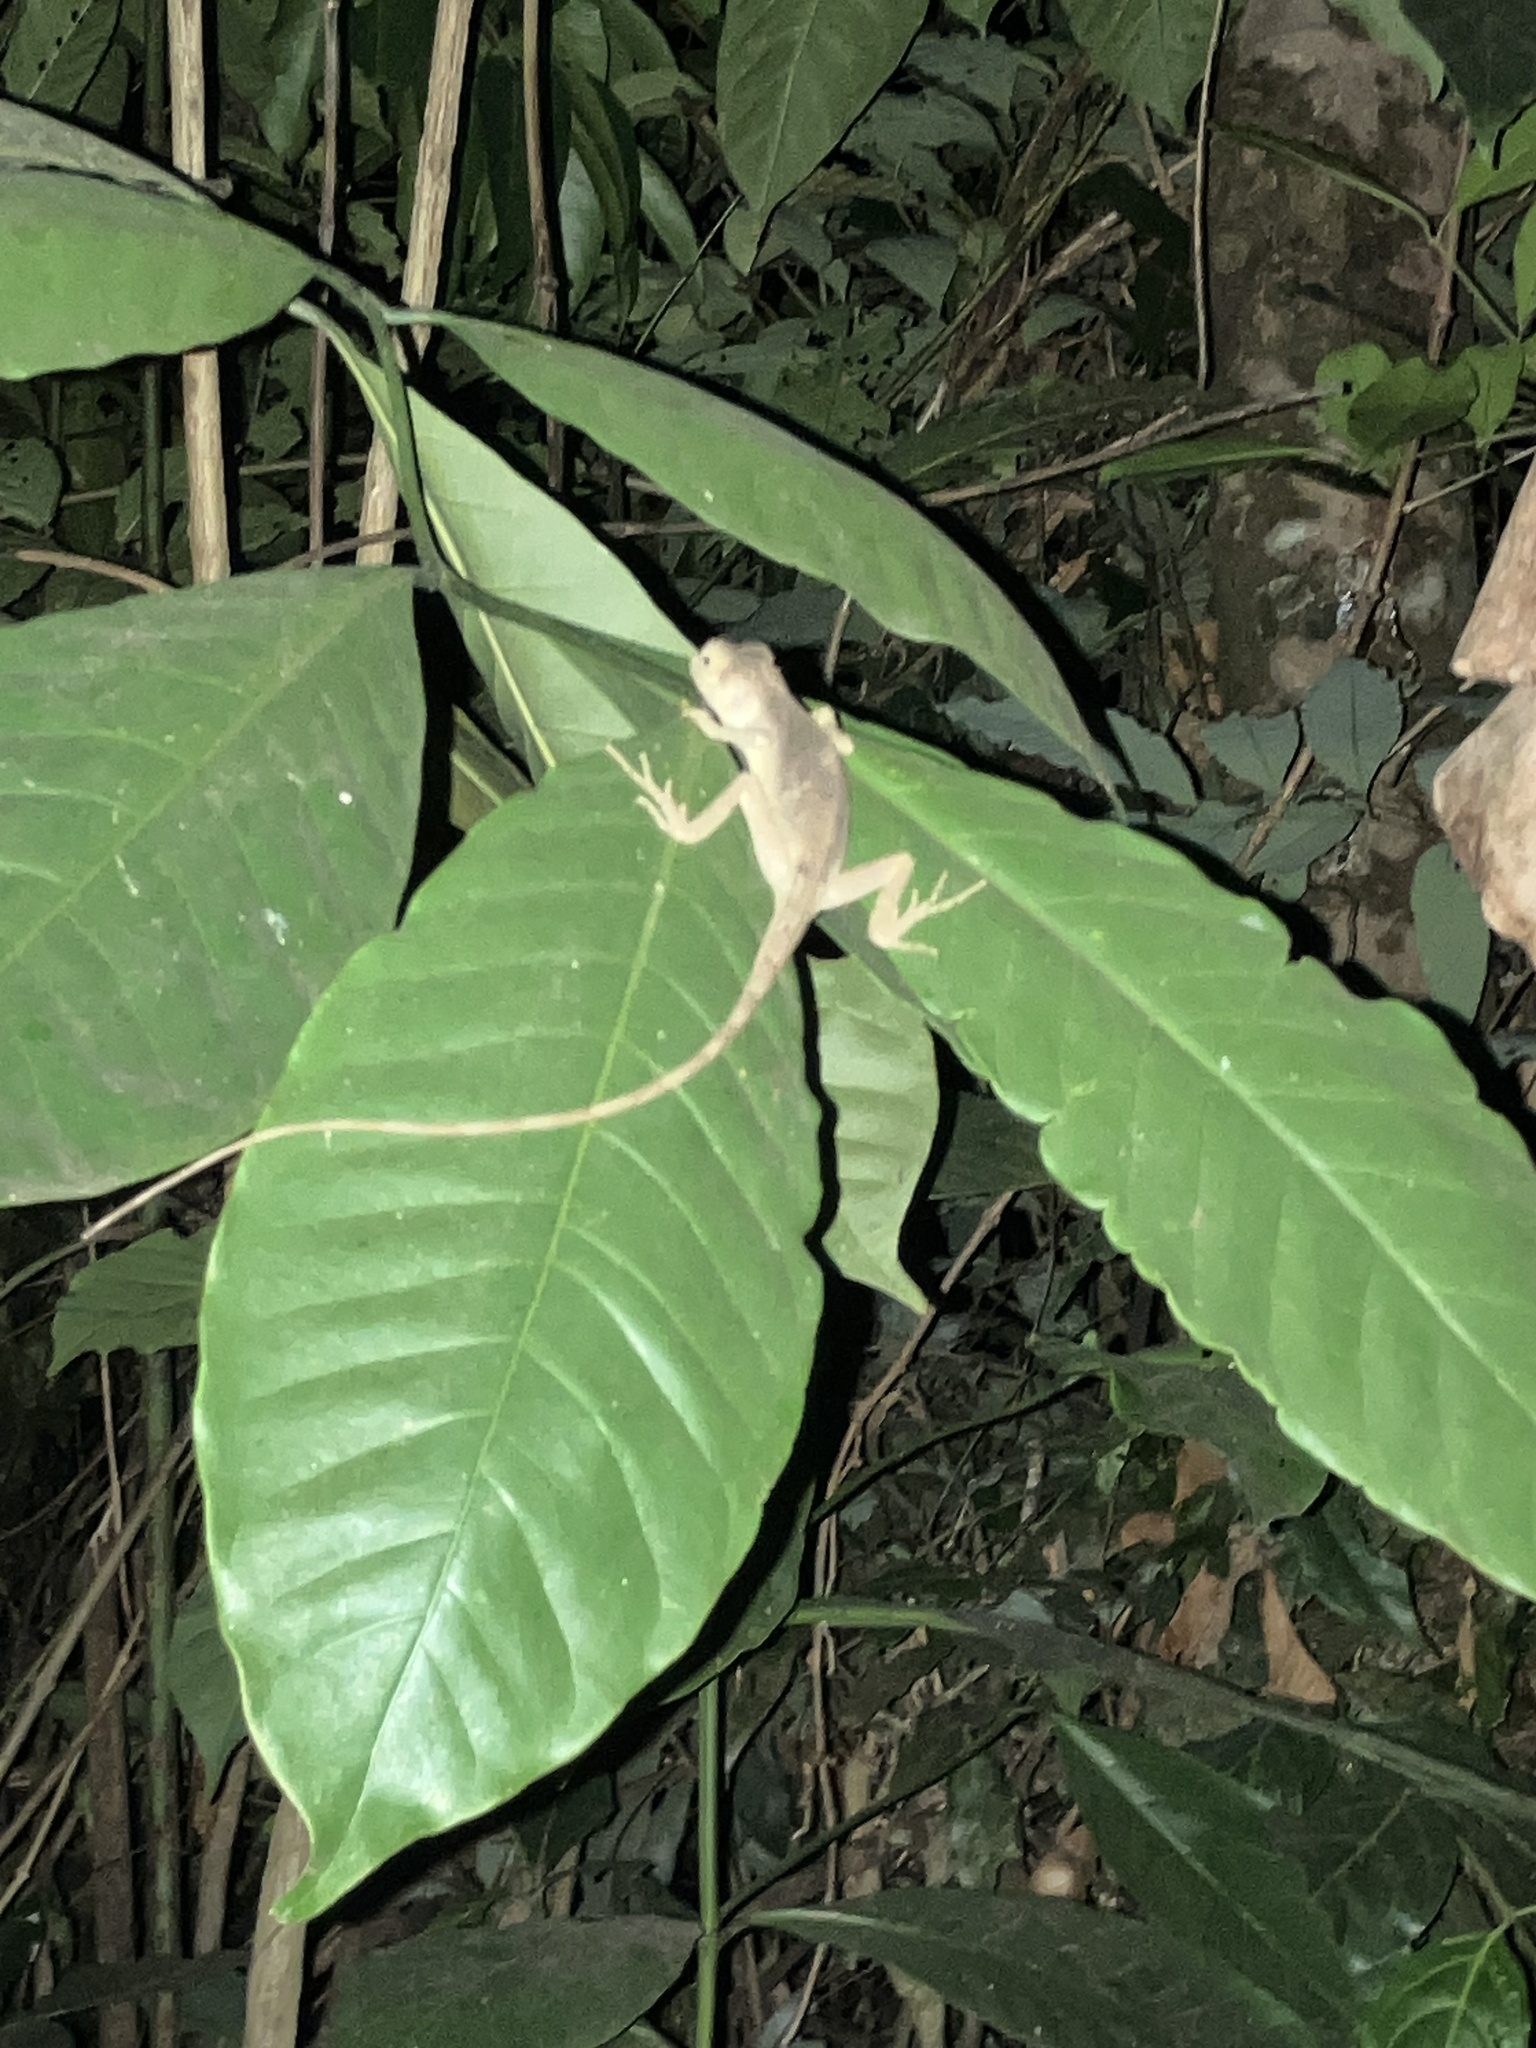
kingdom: Animalia
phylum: Chordata
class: Squamata
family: Agamidae
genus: Monilesaurus
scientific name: Monilesaurus rouxii
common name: Roux's forest lizard
